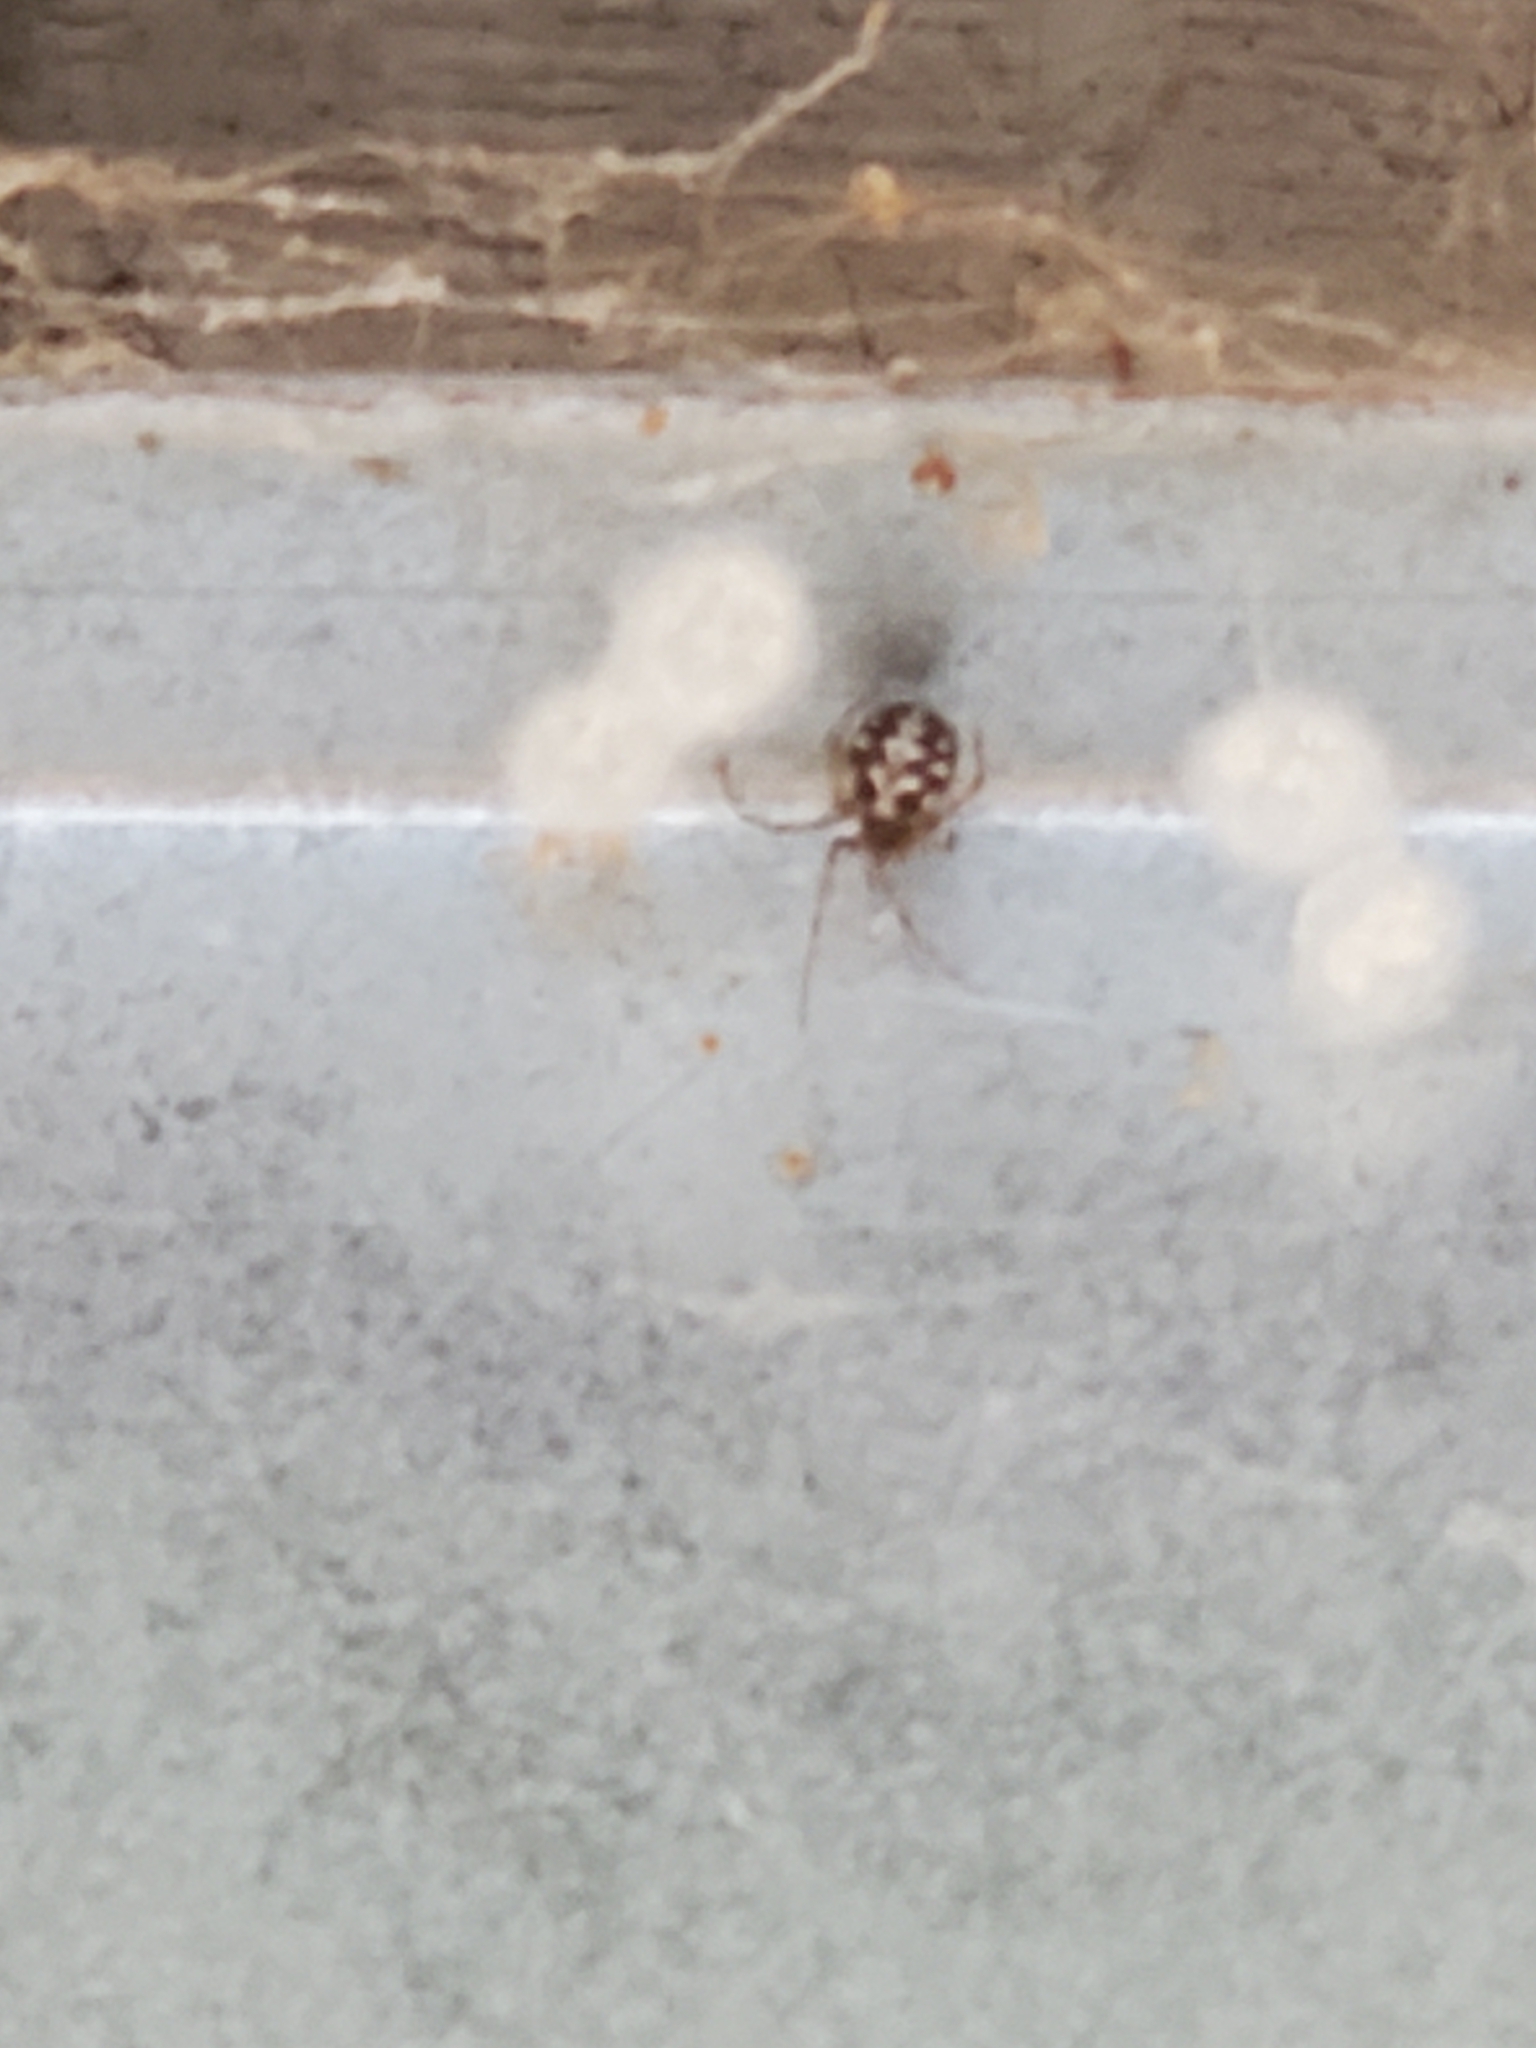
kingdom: Animalia
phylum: Arthropoda
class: Arachnida
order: Araneae
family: Theridiidae
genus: Steatoda
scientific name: Steatoda triangulosa
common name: Triangulate bud spider
